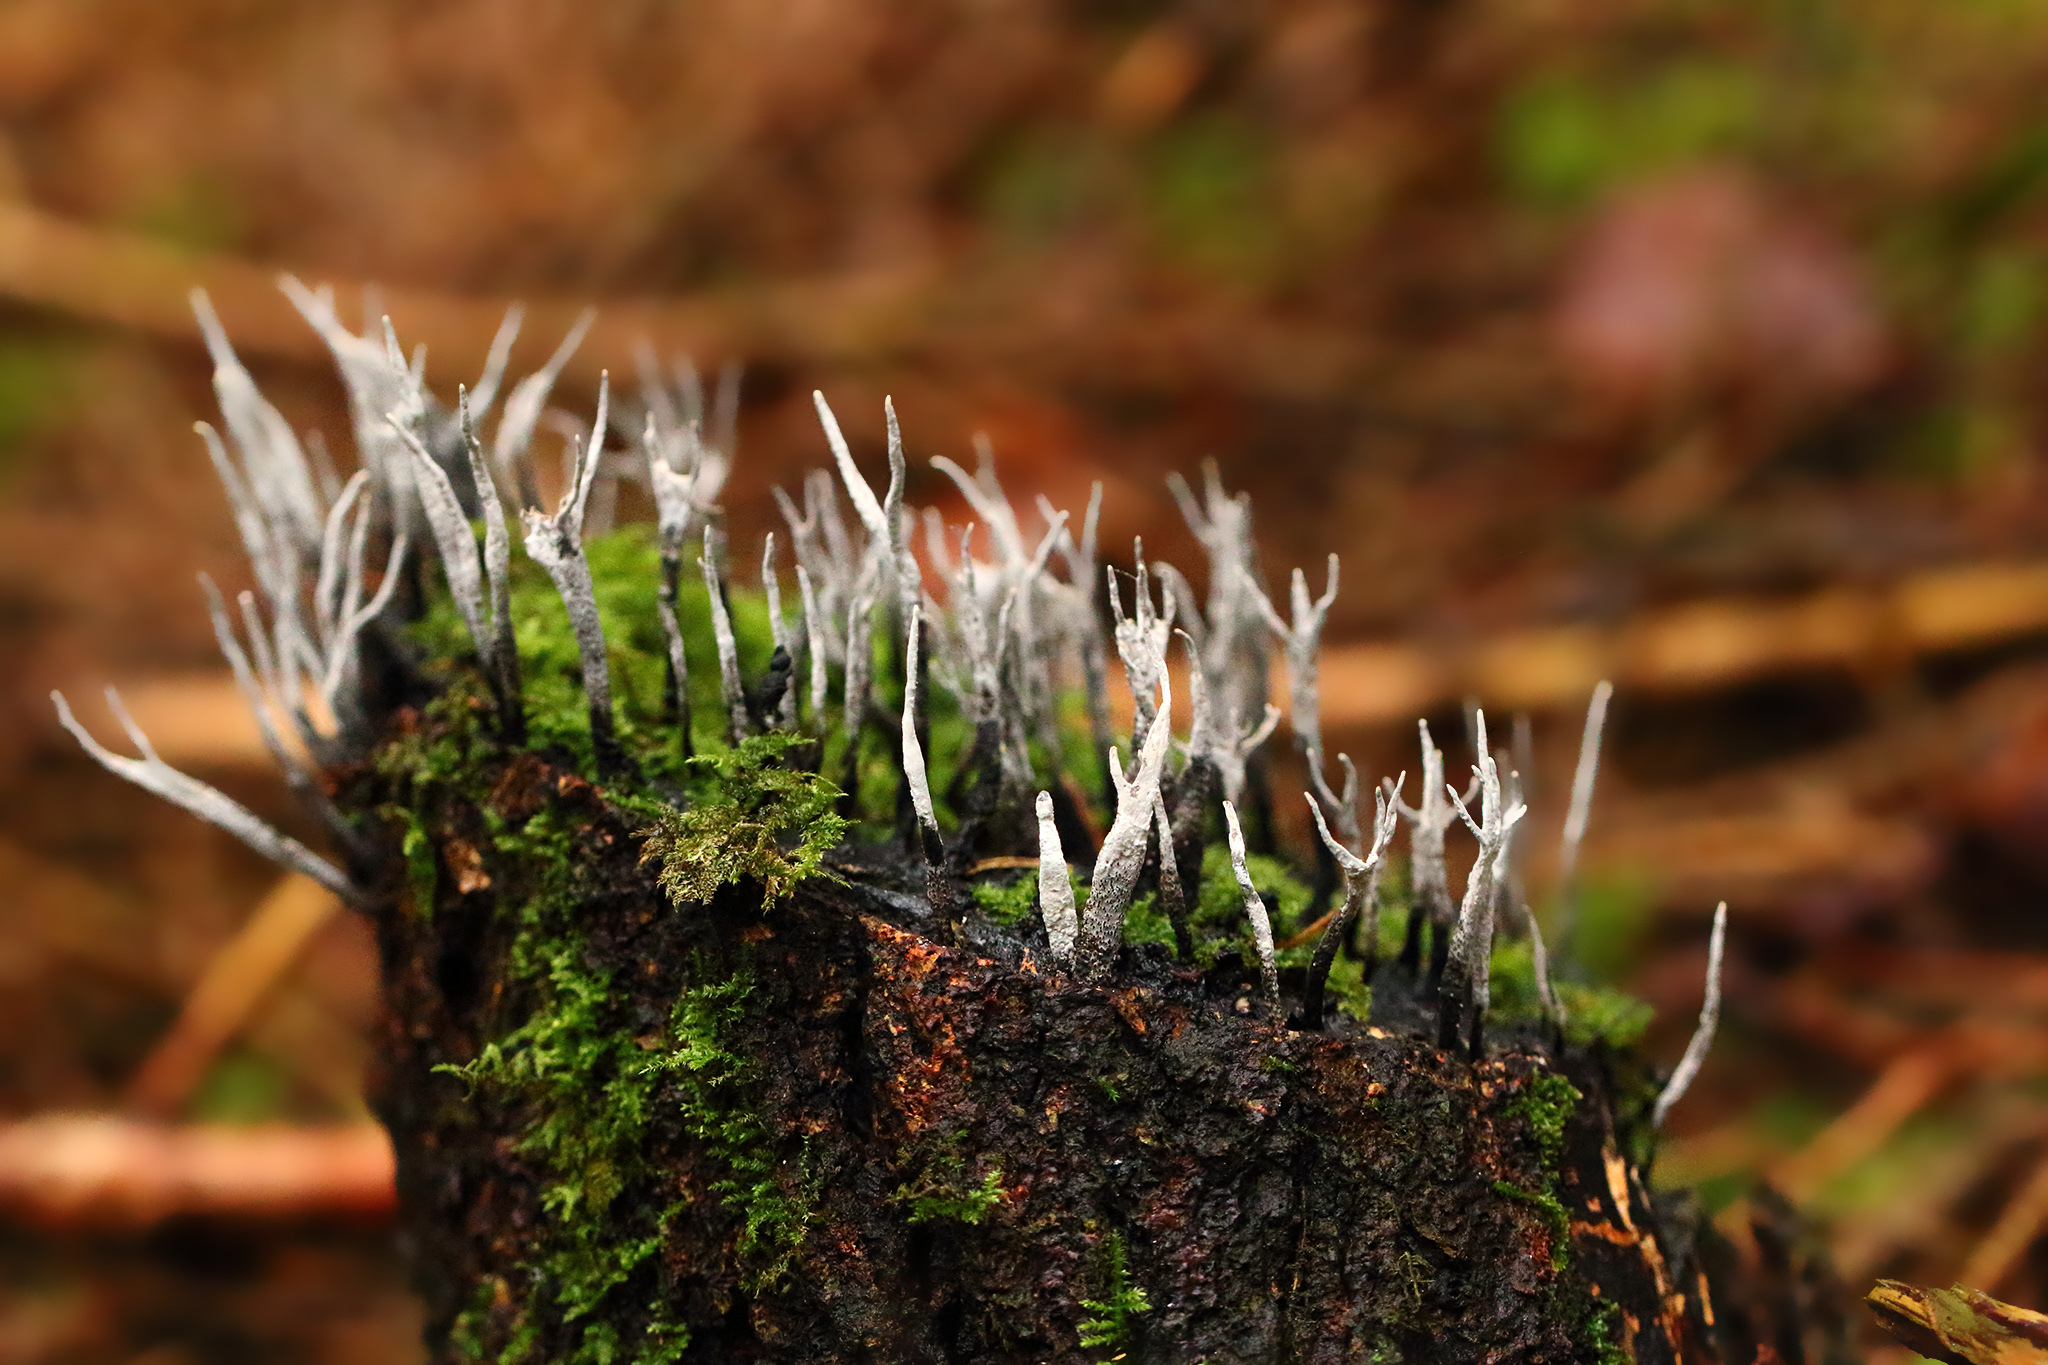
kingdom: Fungi
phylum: Ascomycota
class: Sordariomycetes
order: Xylariales
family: Xylariaceae
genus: Xylaria
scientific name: Xylaria hypoxylon
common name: Candle-snuff fungus
